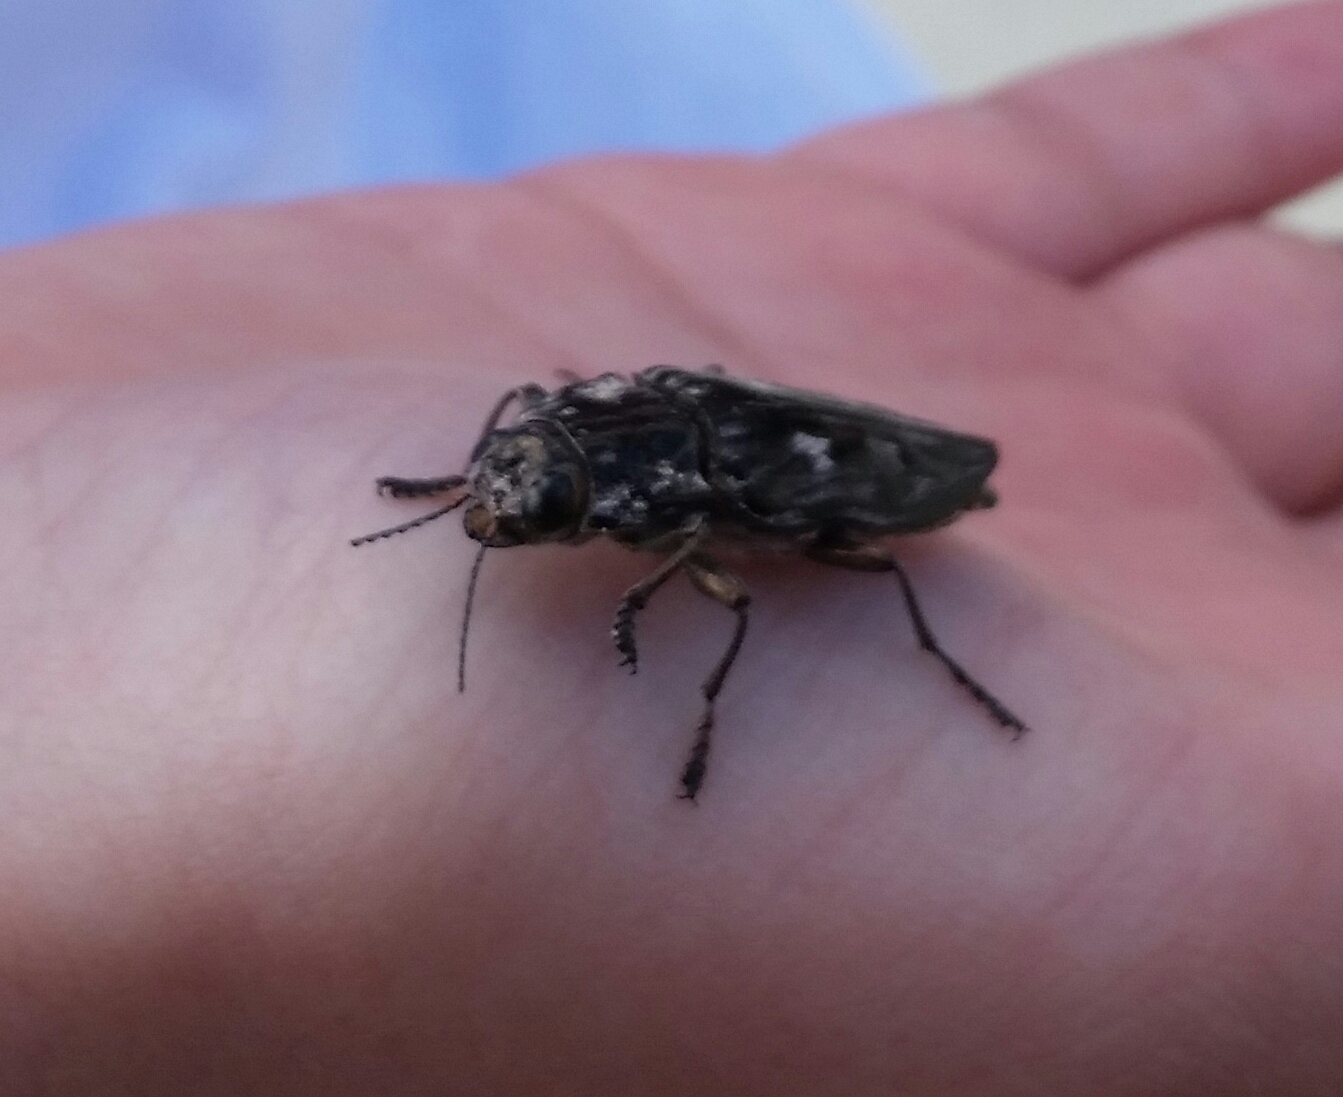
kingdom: Animalia
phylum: Arthropoda
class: Insecta
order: Coleoptera
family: Buprestidae
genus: Chalcophora
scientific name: Chalcophora virginiensis
